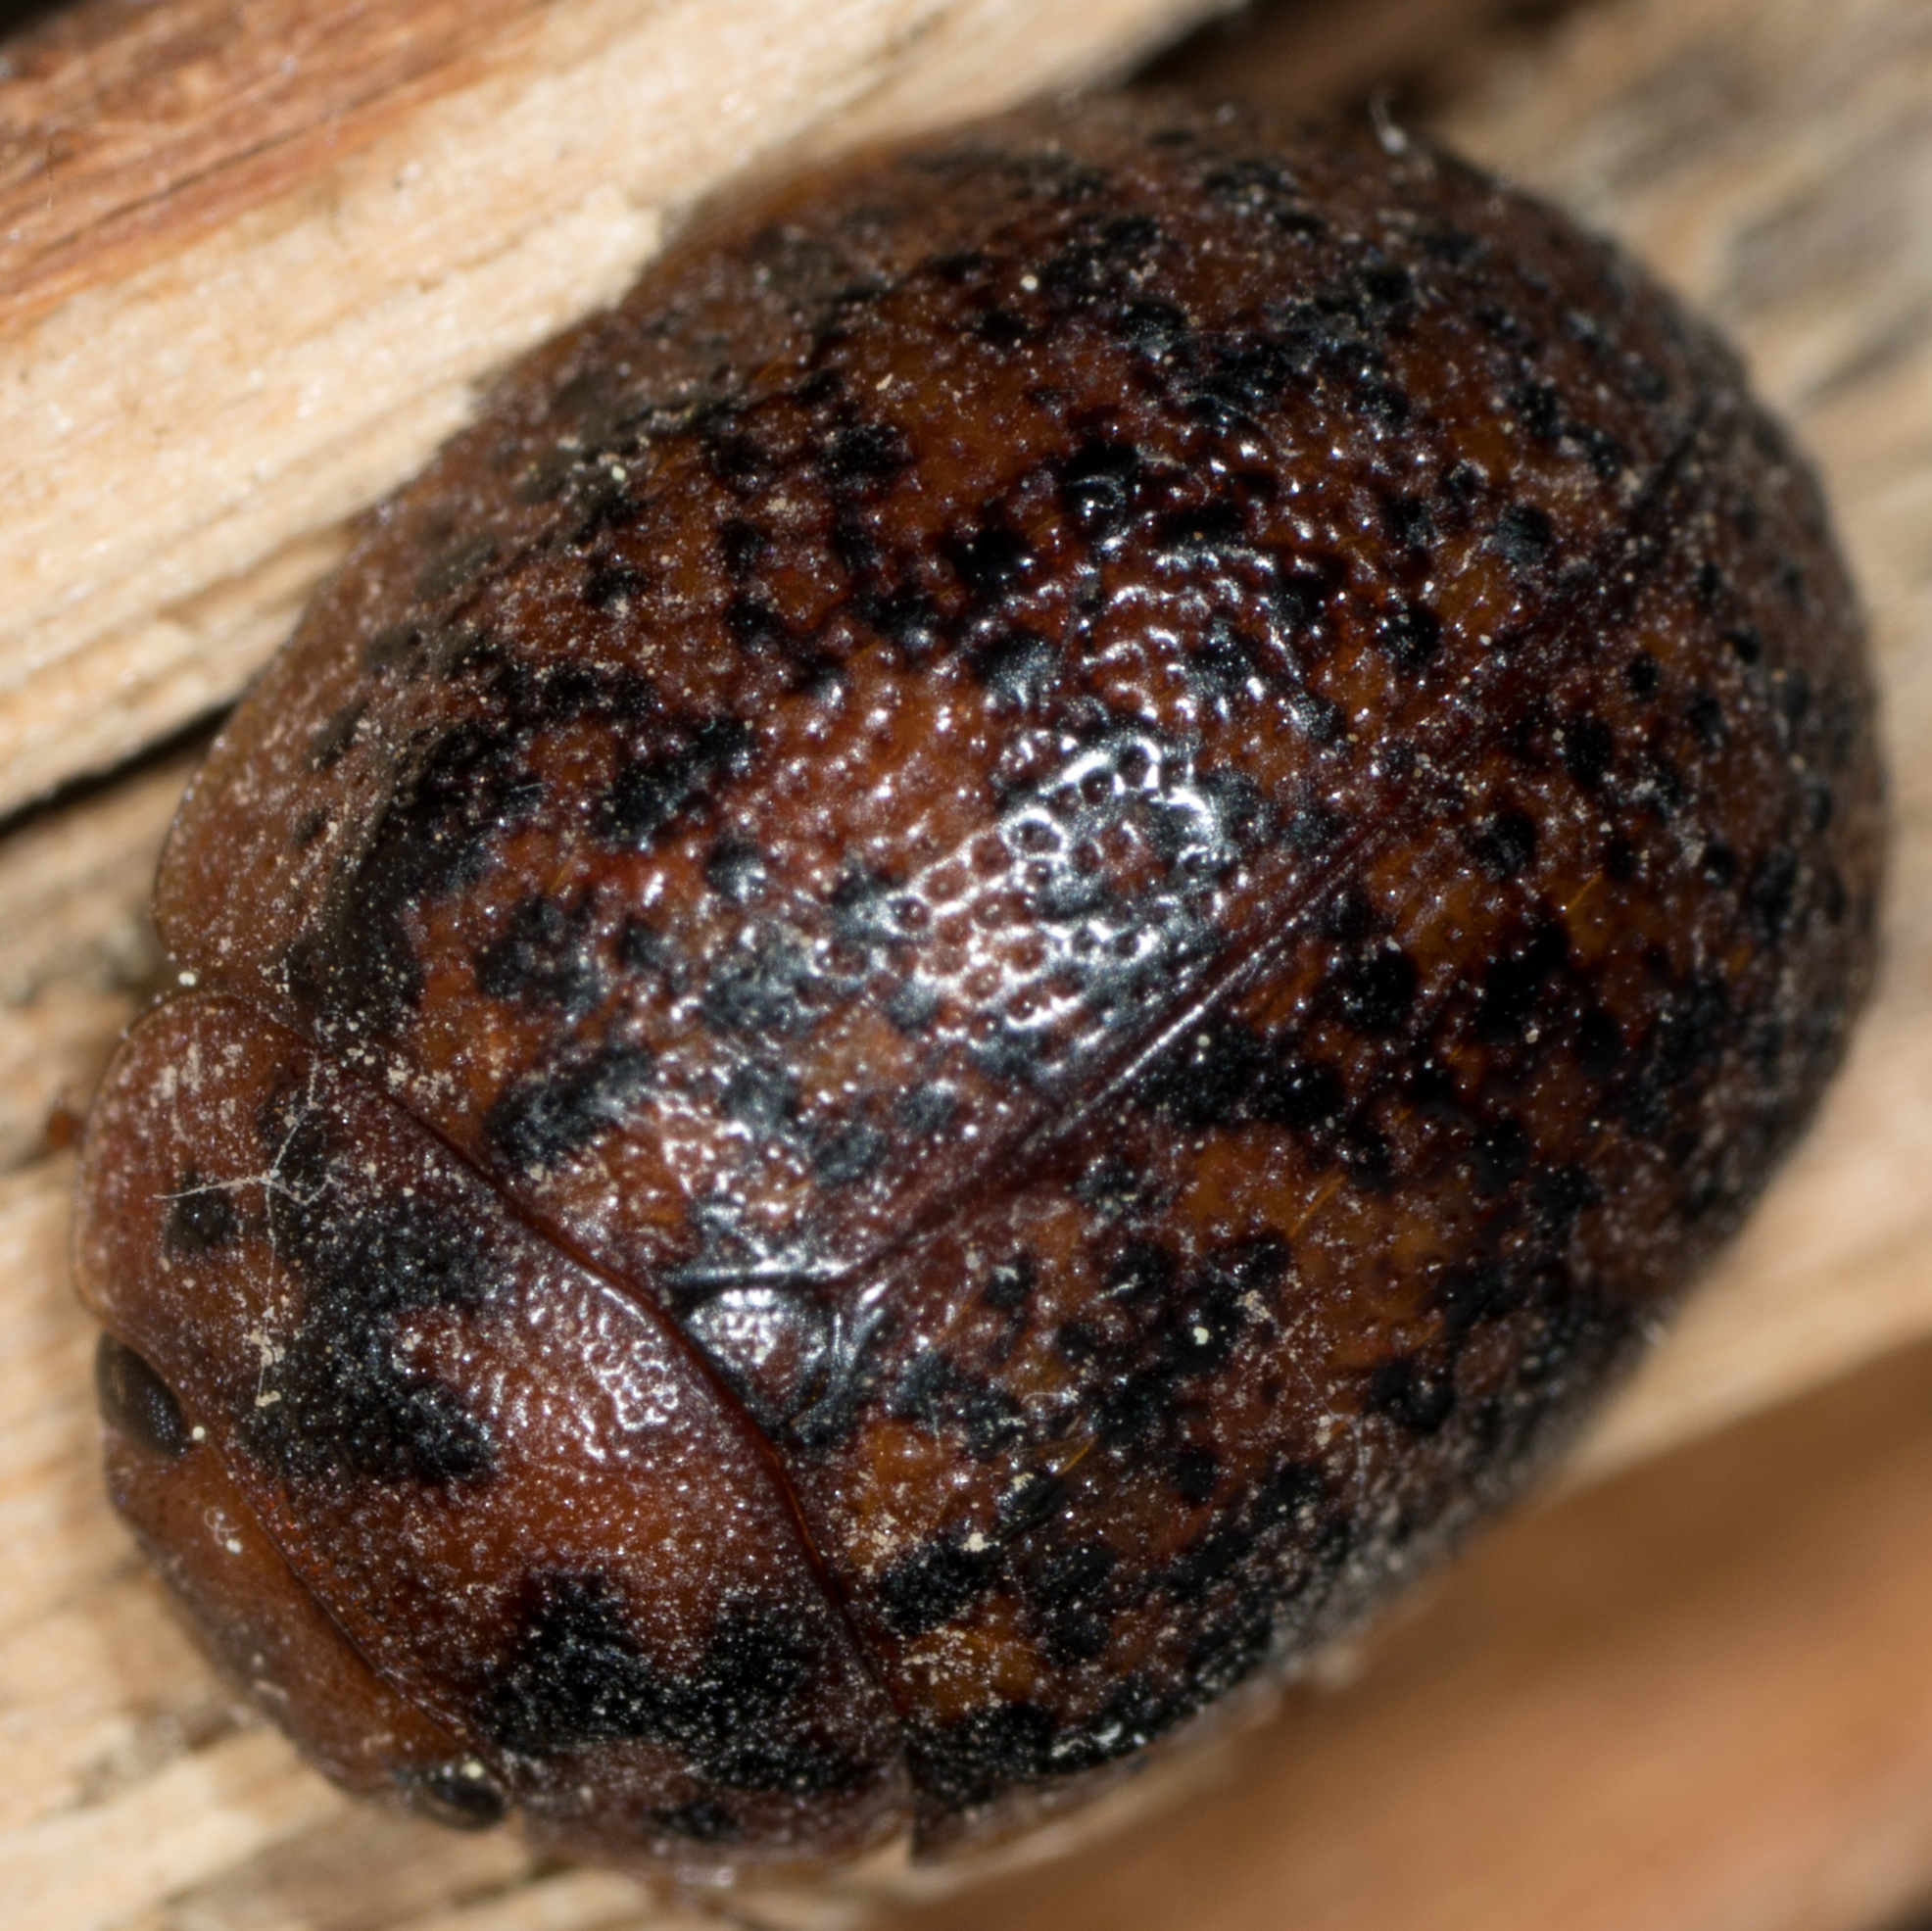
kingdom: Animalia
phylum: Arthropoda
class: Insecta
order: Coleoptera
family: Chrysomelidae
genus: Trachymela
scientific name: Trachymela sloanei
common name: Australian tortoise beetle
